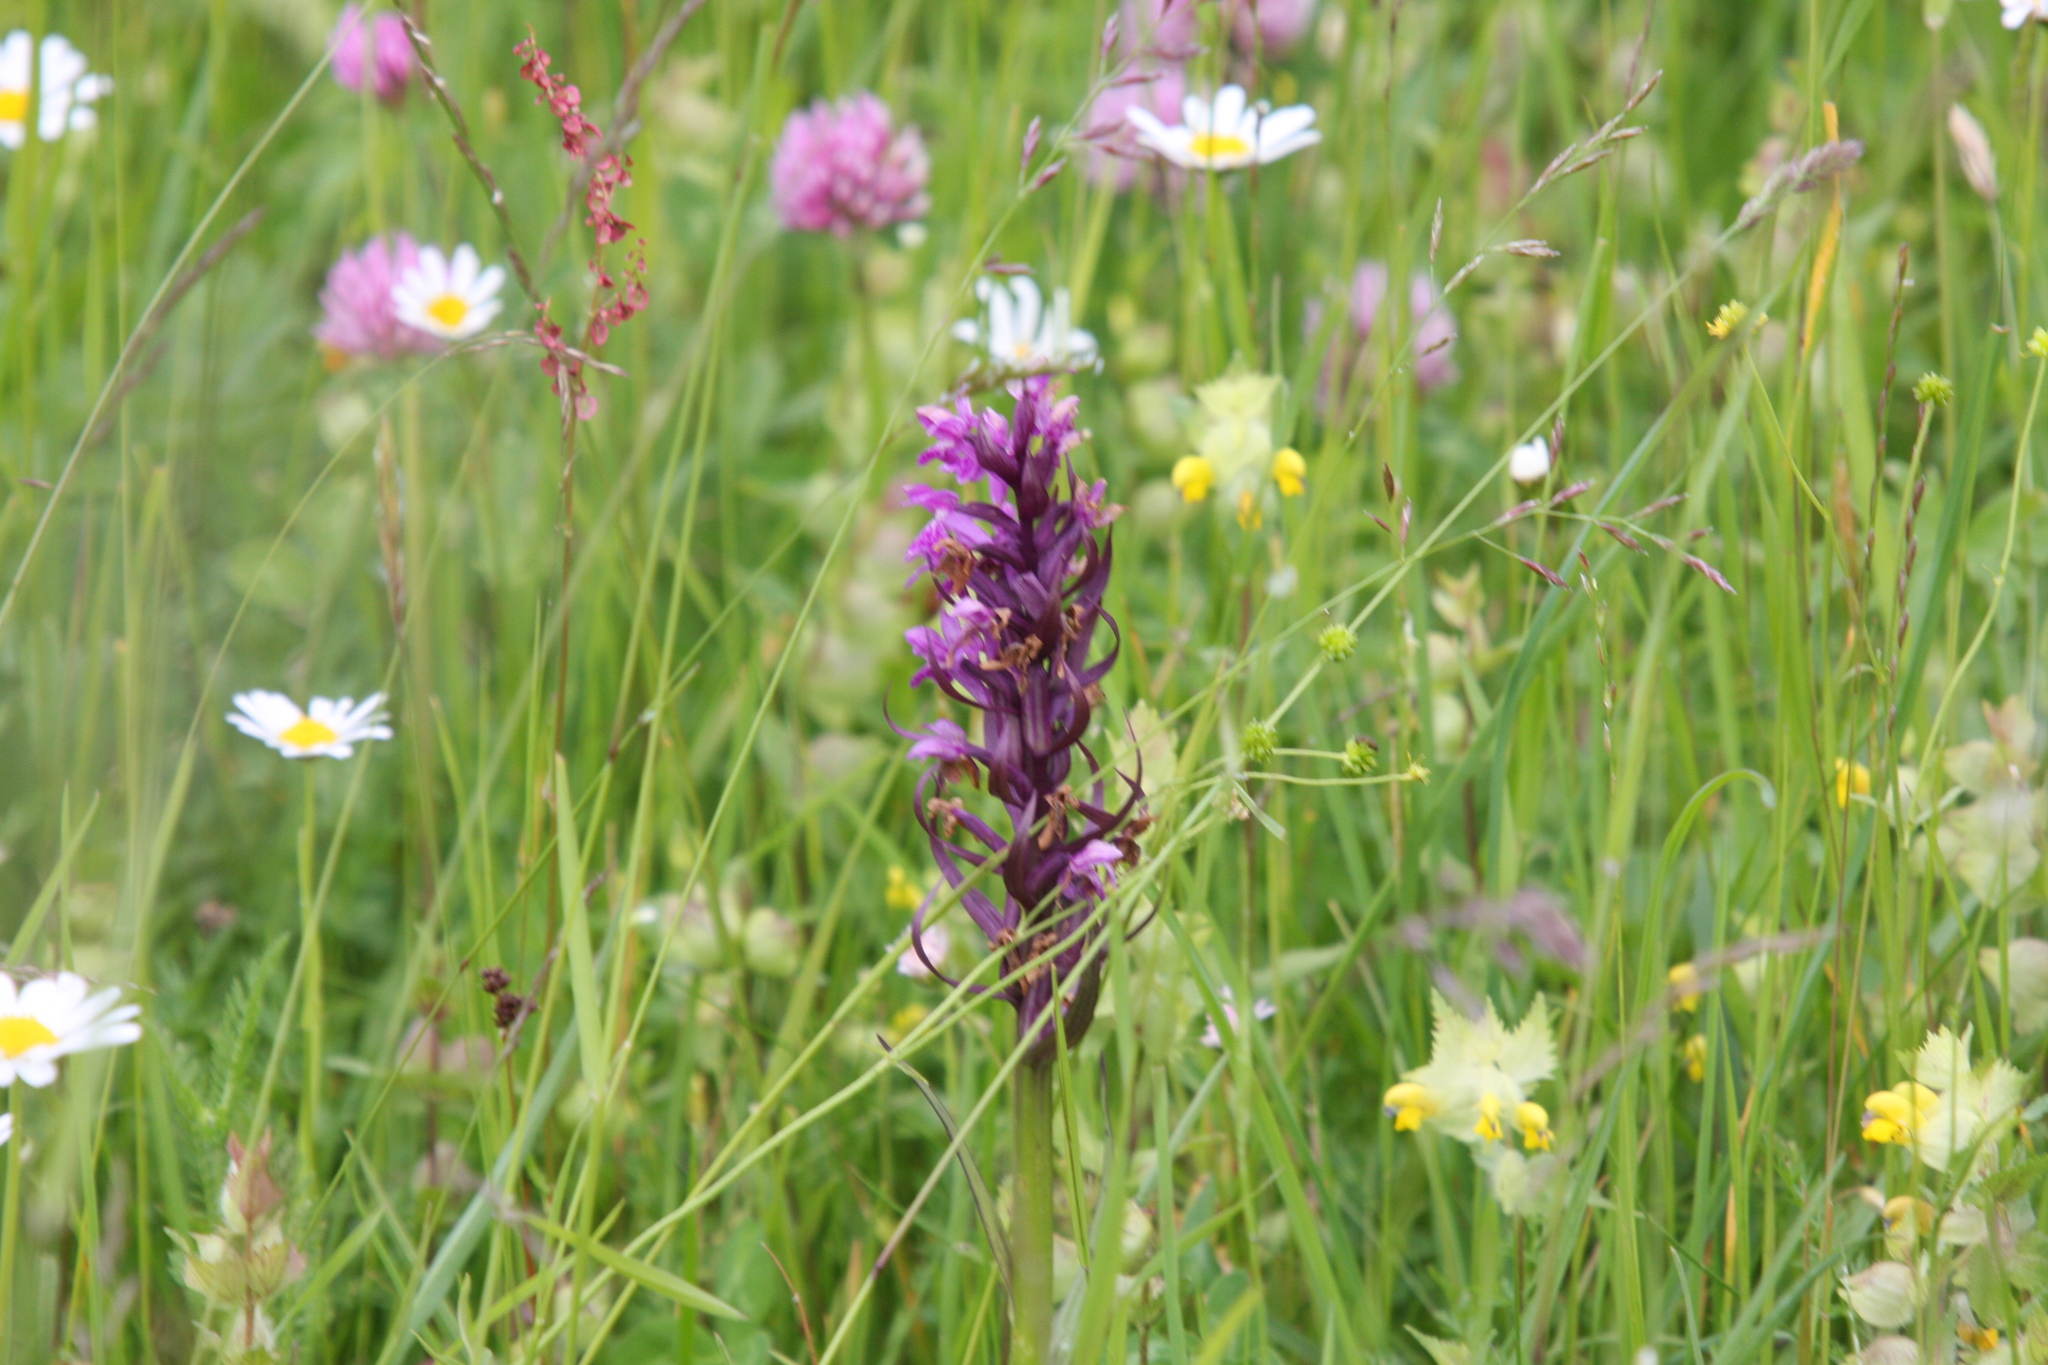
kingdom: Plantae
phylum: Tracheophyta
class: Liliopsida
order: Asparagales
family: Orchidaceae
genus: Dactylorhiza
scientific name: Dactylorhiza majalis
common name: Marsh orchid
